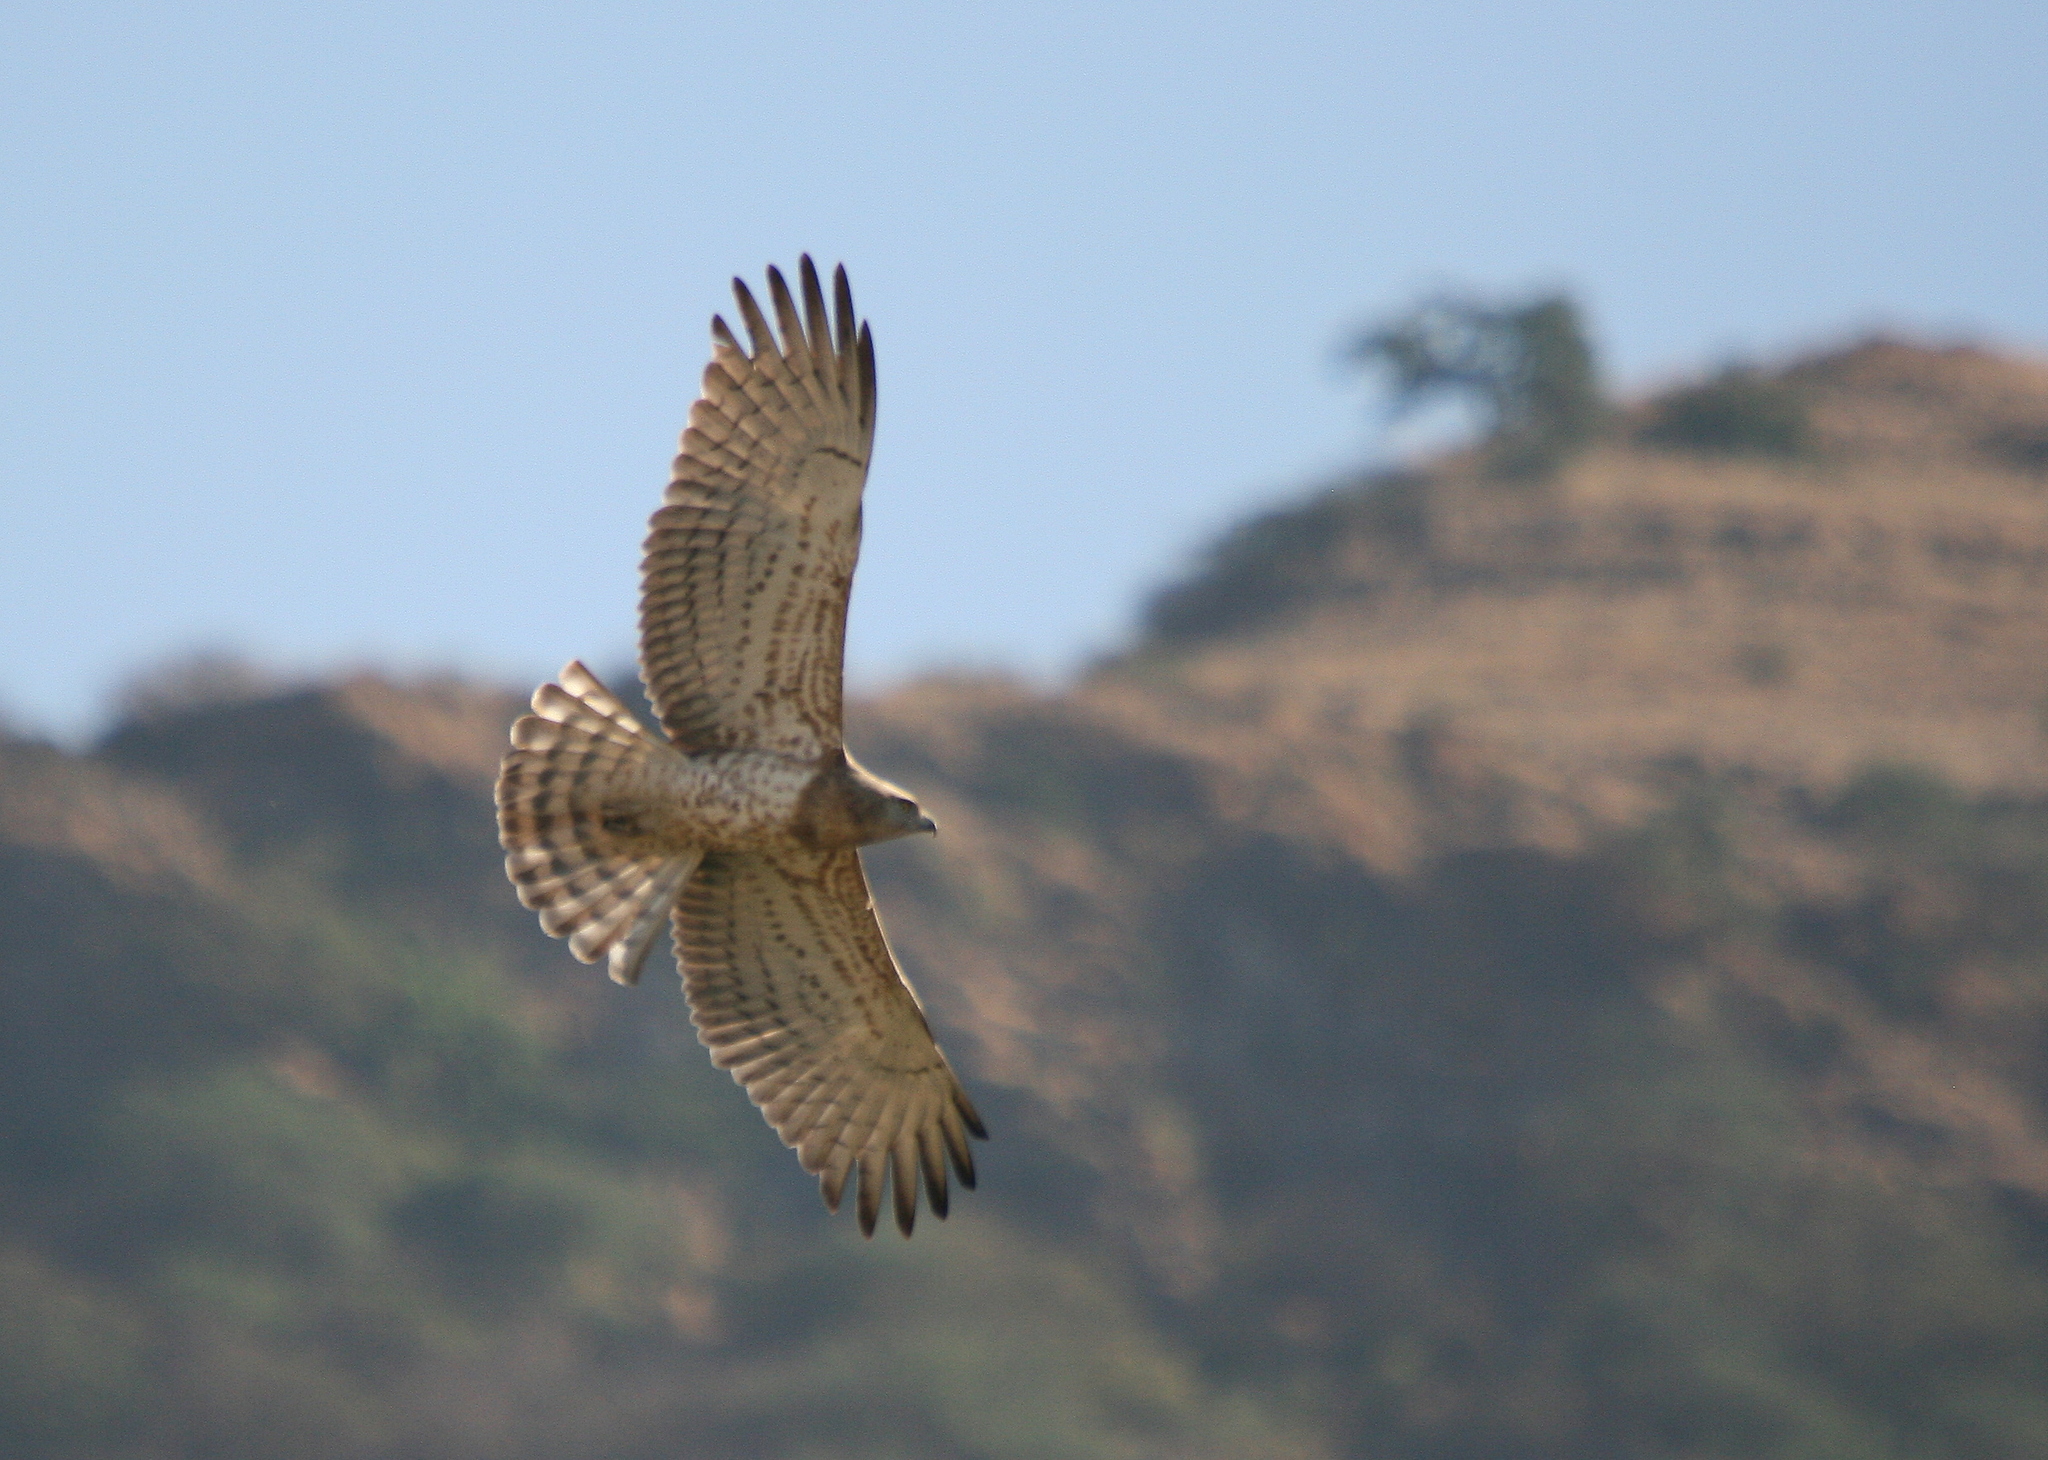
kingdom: Animalia
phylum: Chordata
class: Aves
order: Accipitriformes
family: Accipitridae
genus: Circaetus
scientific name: Circaetus gallicus
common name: Short-toed snake eagle
